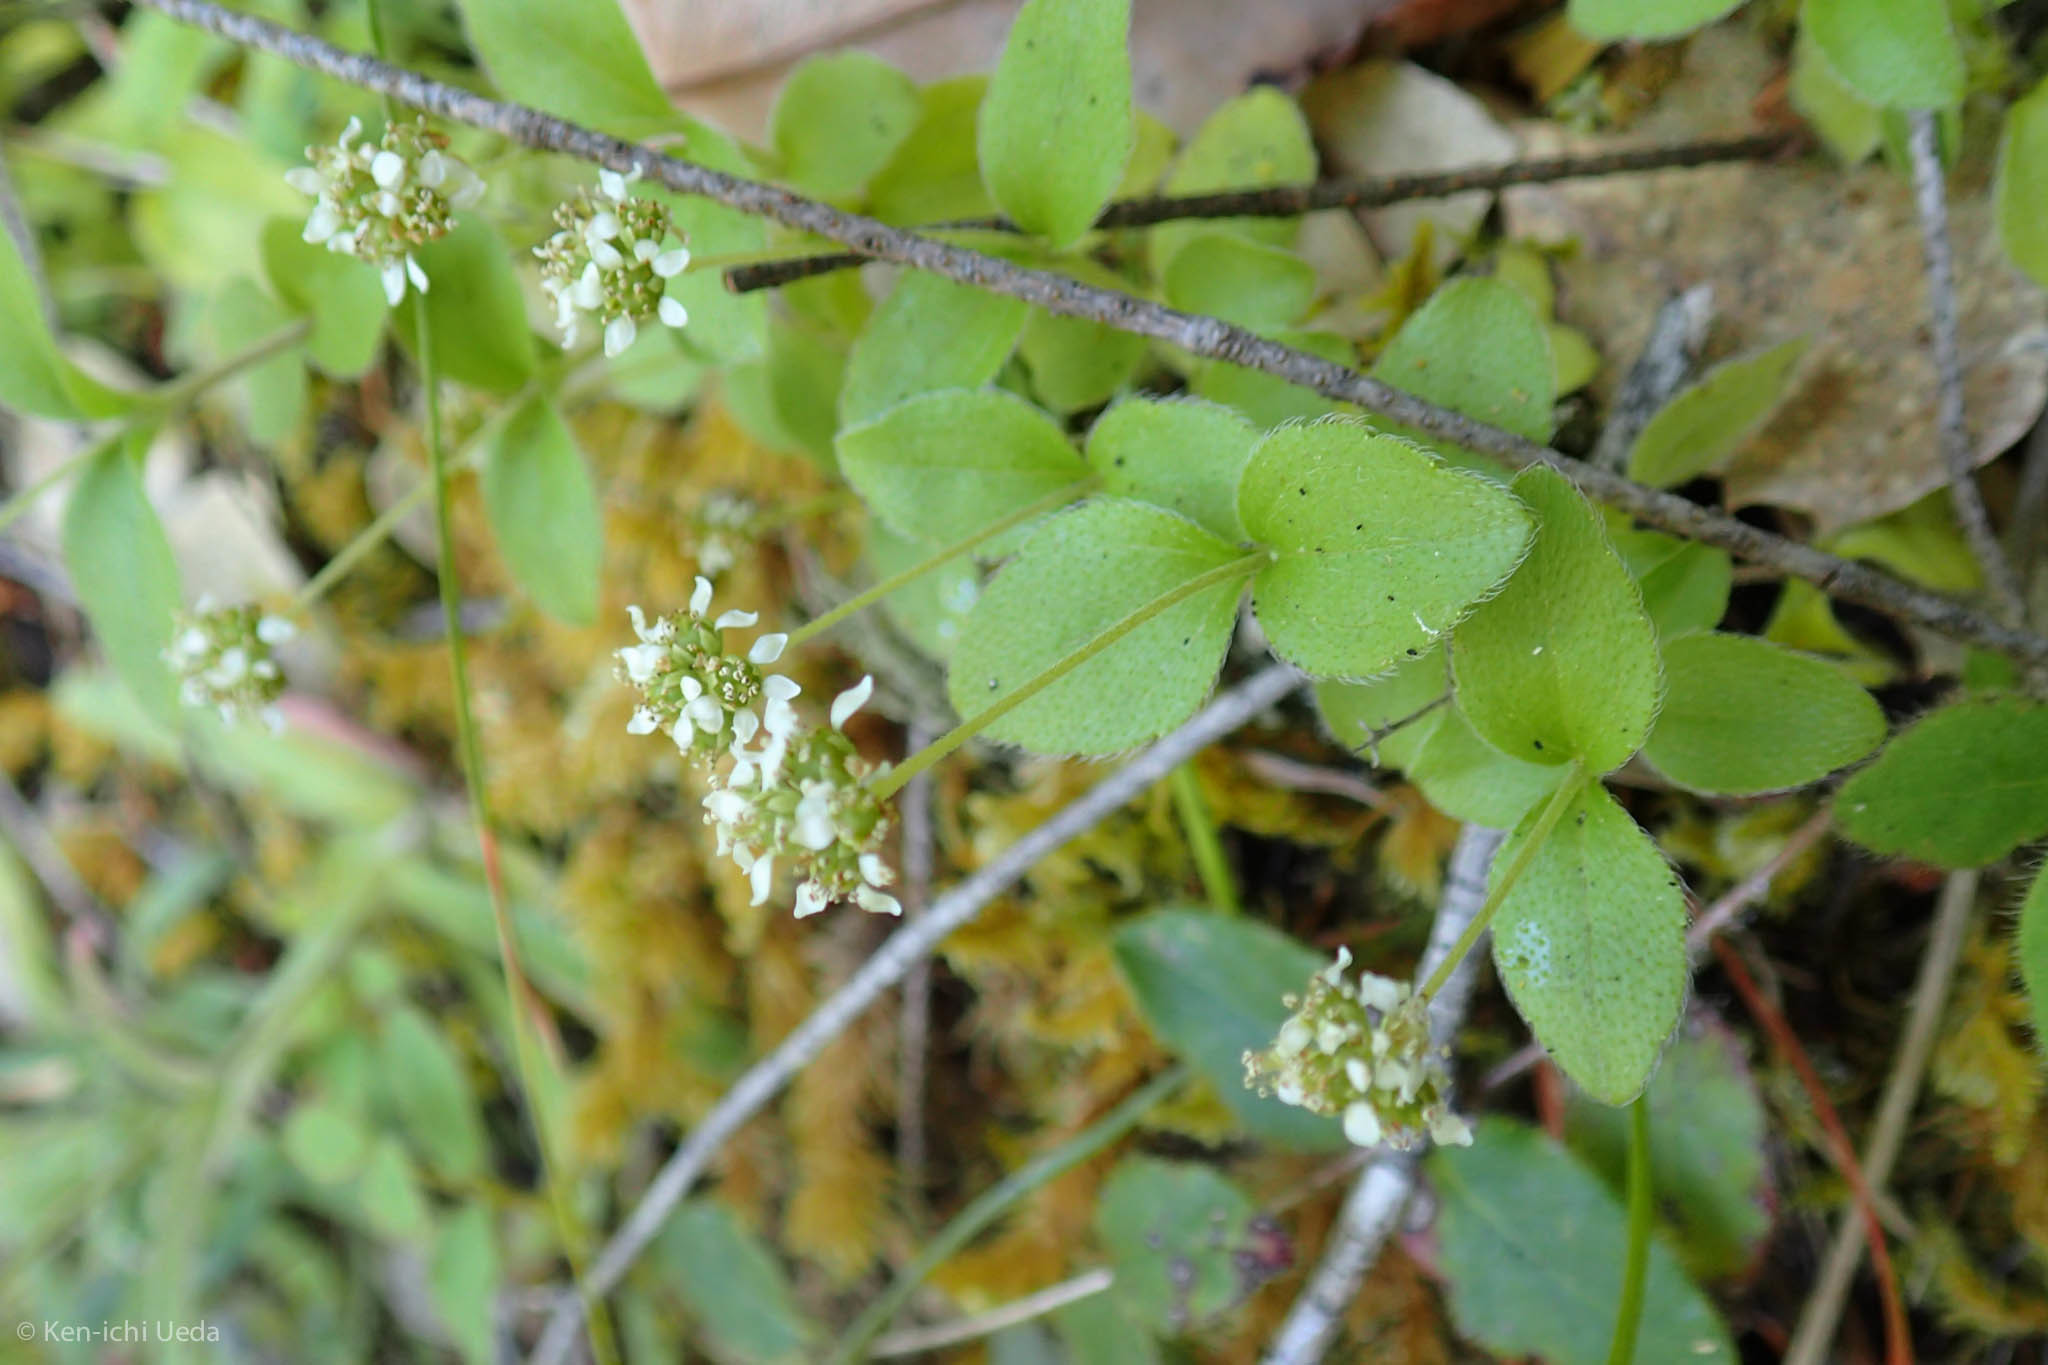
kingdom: Plantae
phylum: Tracheophyta
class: Magnoliopsida
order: Cornales
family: Hydrangeaceae
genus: Whipplea
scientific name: Whipplea modesta
